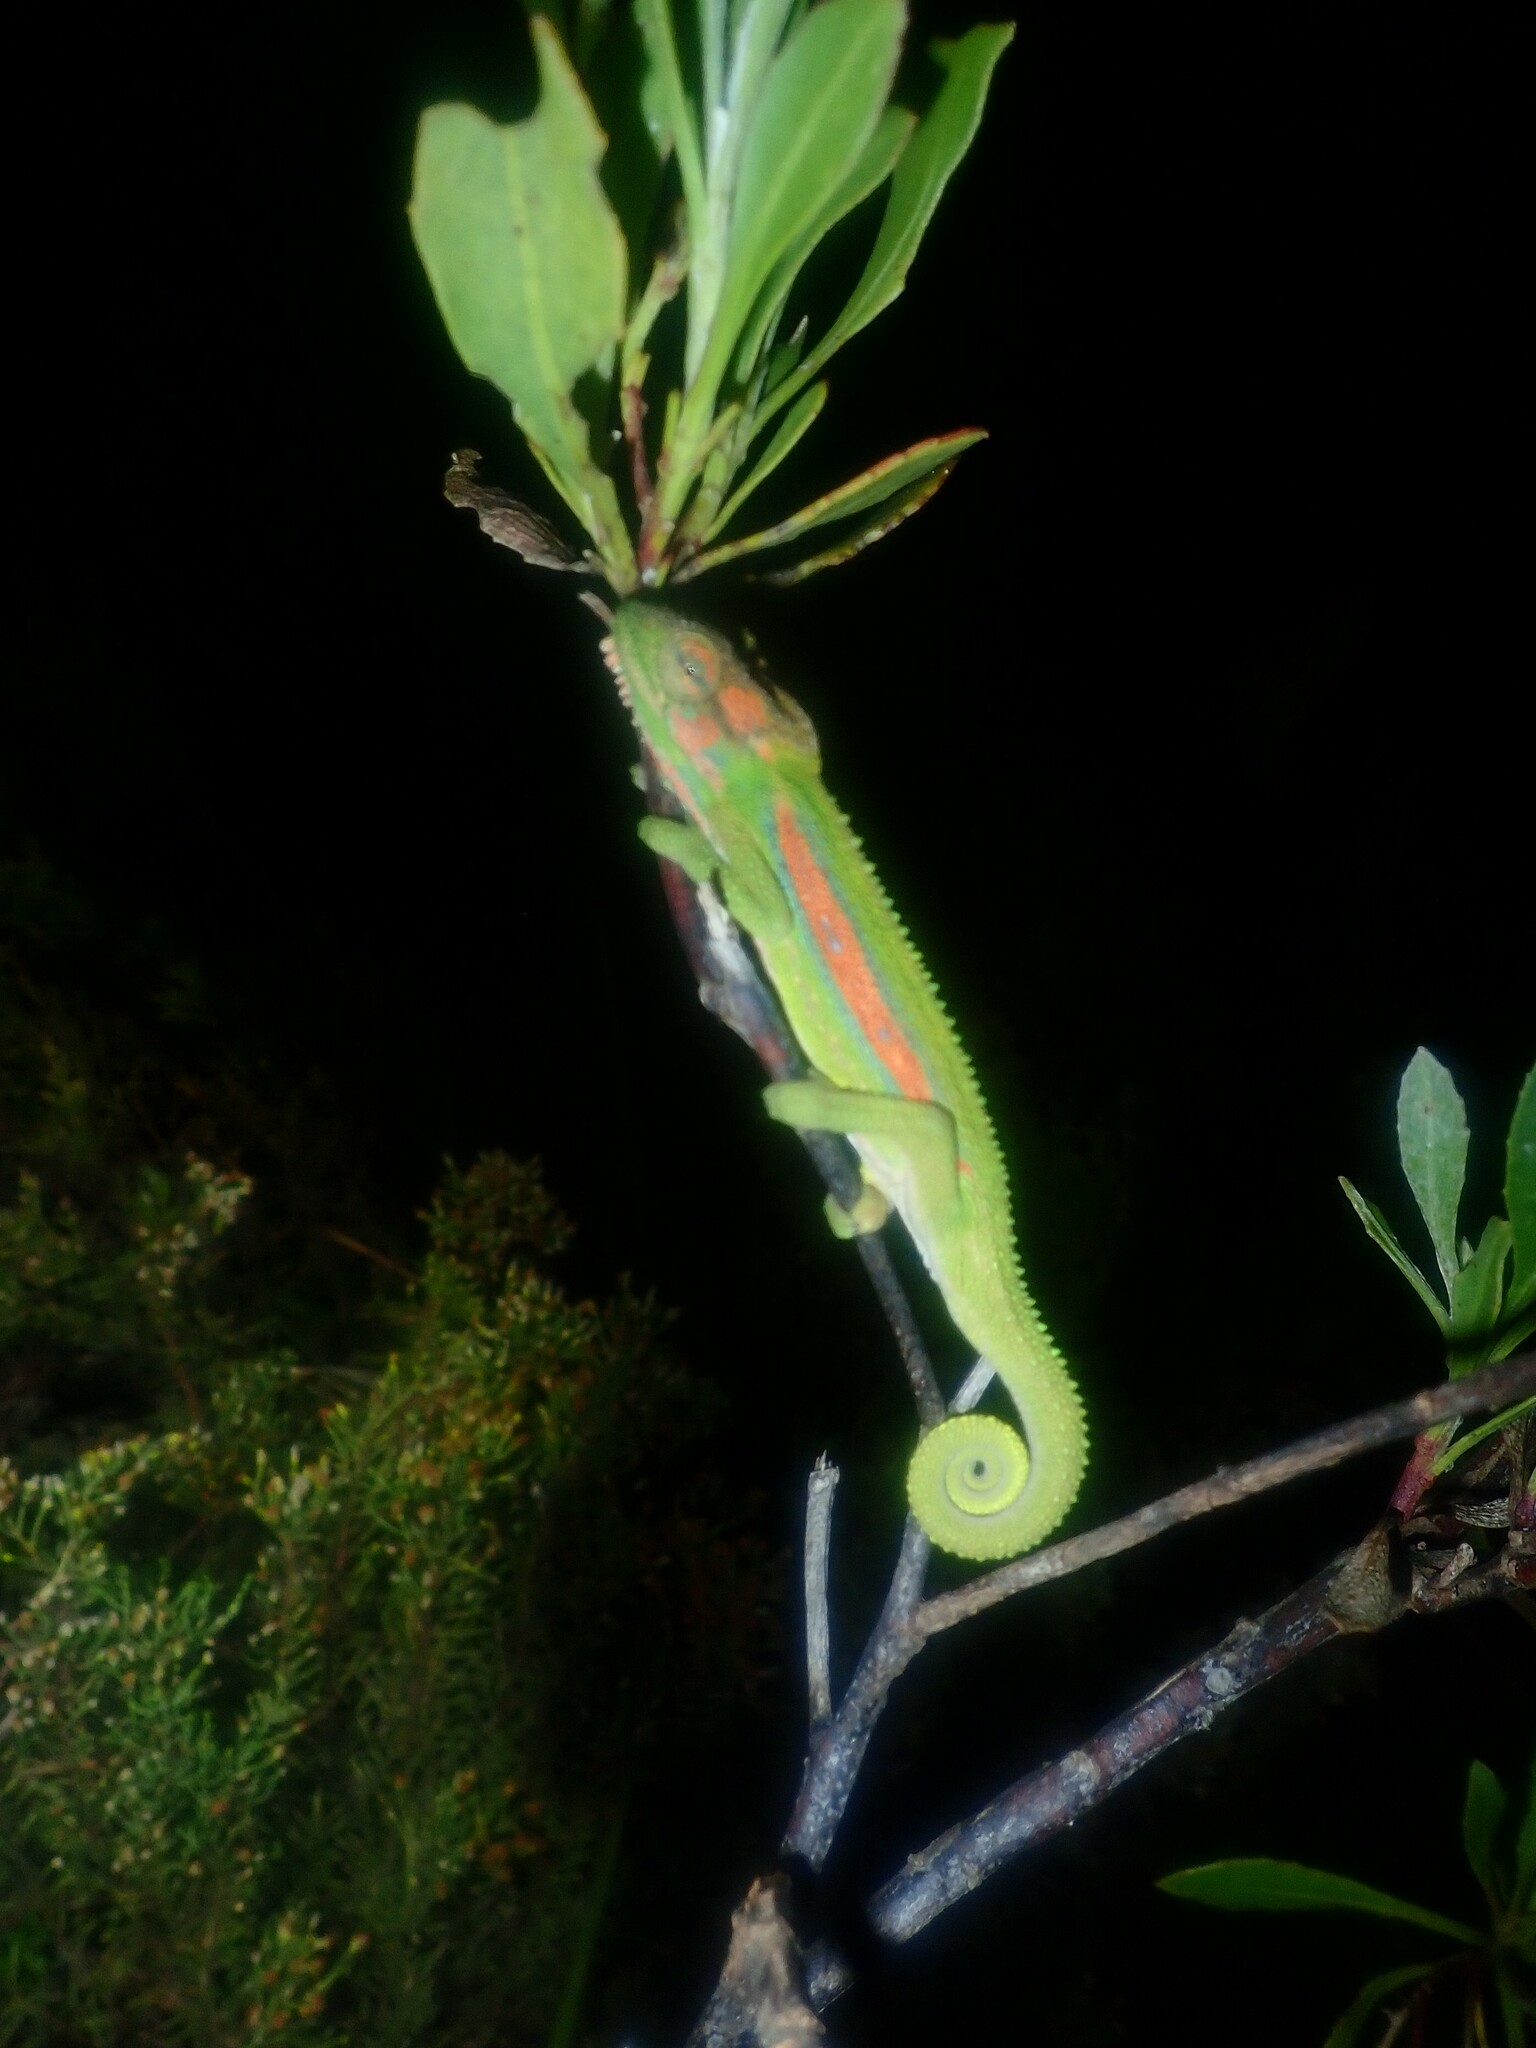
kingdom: Animalia
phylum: Chordata
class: Squamata
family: Chamaeleonidae
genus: Bradypodion
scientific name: Bradypodion pumilum
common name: Cape dwarf chameleon
